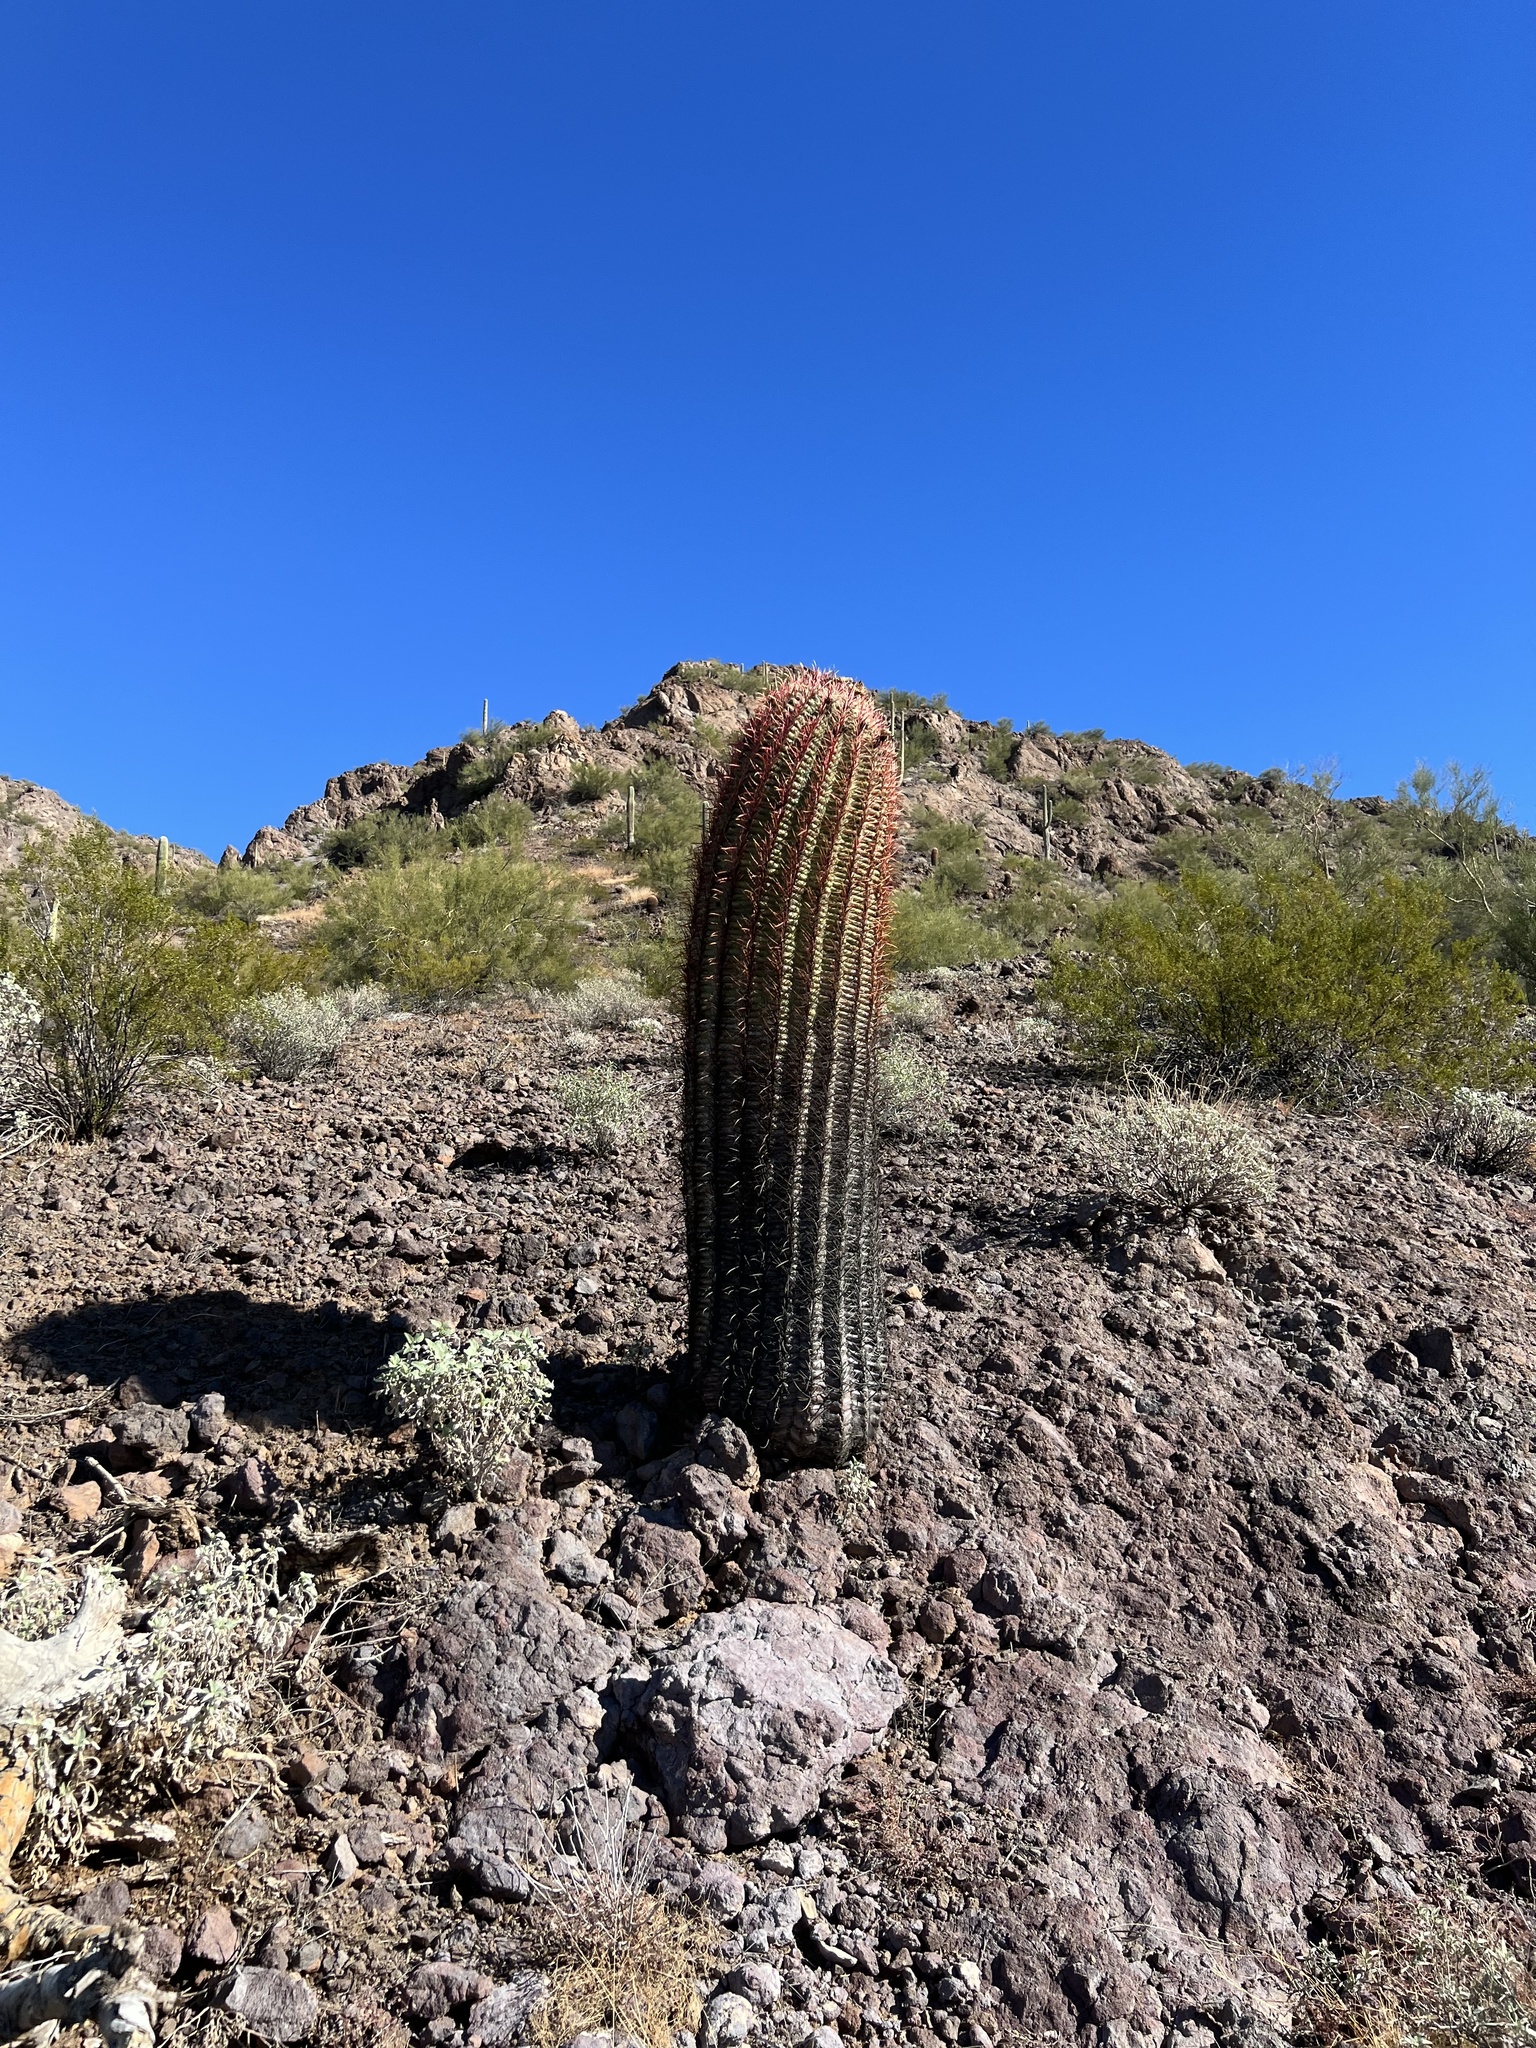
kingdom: Plantae
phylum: Tracheophyta
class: Magnoliopsida
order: Caryophyllales
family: Cactaceae
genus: Ferocactus
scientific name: Ferocactus cylindraceus
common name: California barrel cactus
